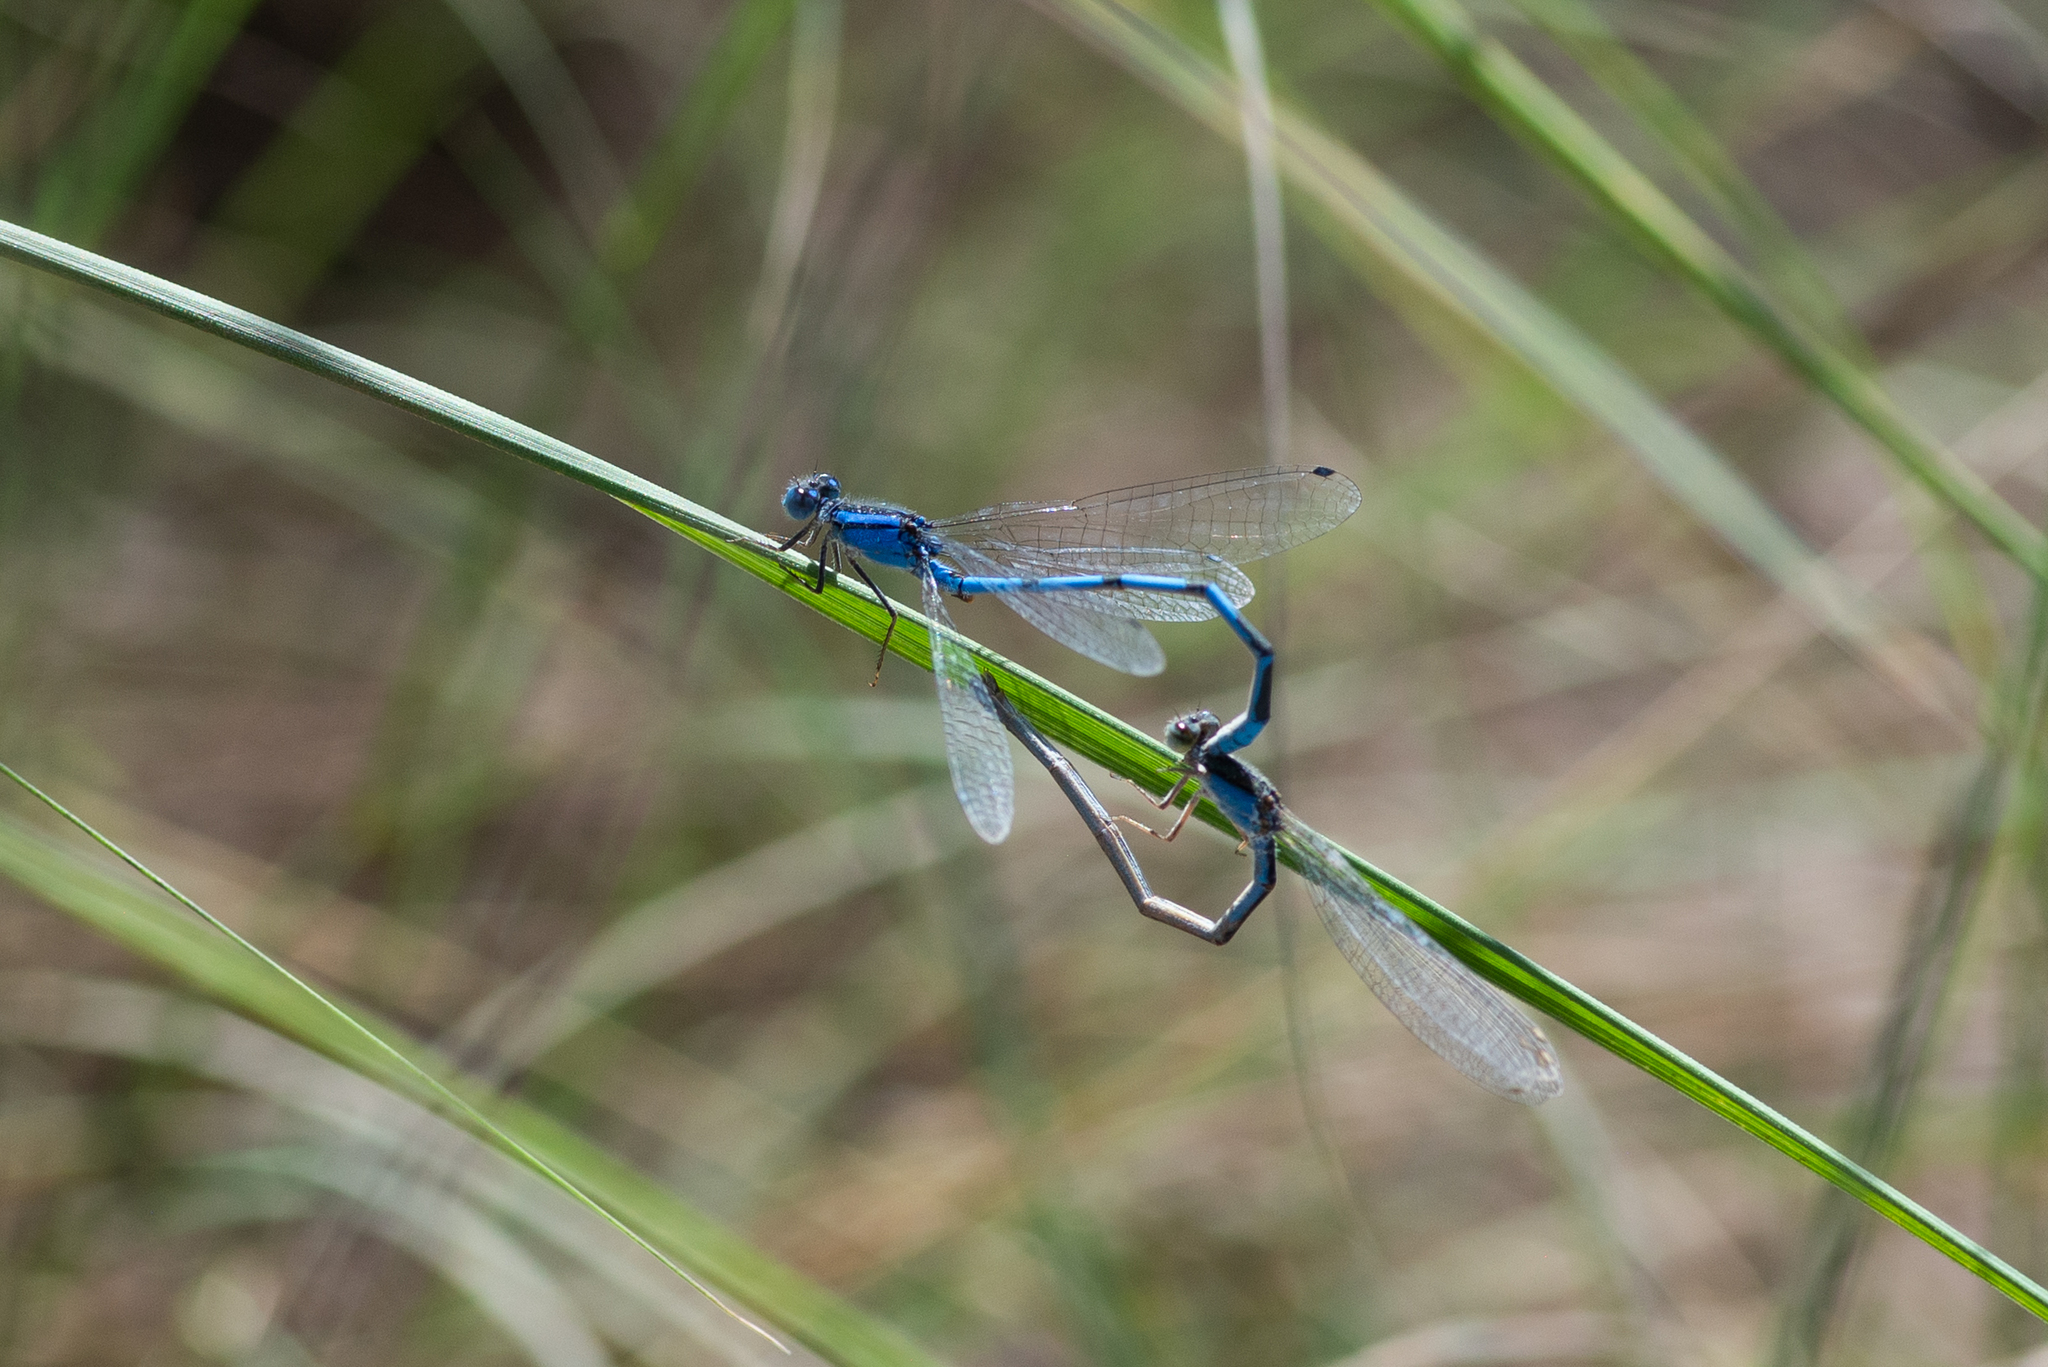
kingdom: Animalia
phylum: Arthropoda
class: Insecta
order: Odonata
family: Coenagrionidae
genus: Enallagma
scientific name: Enallagma civile
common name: Damselfly
